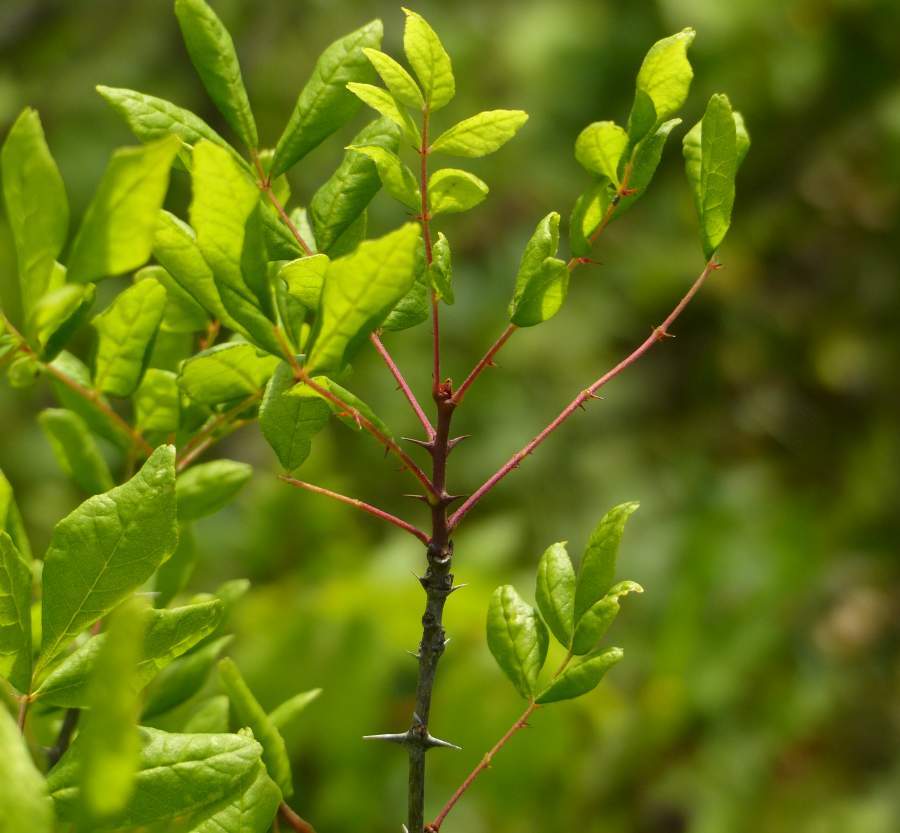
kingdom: Plantae
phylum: Tracheophyta
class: Magnoliopsida
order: Sapindales
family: Rutaceae
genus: Zanthoxylum
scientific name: Zanthoxylum americanum
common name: Northern prickly-ash
